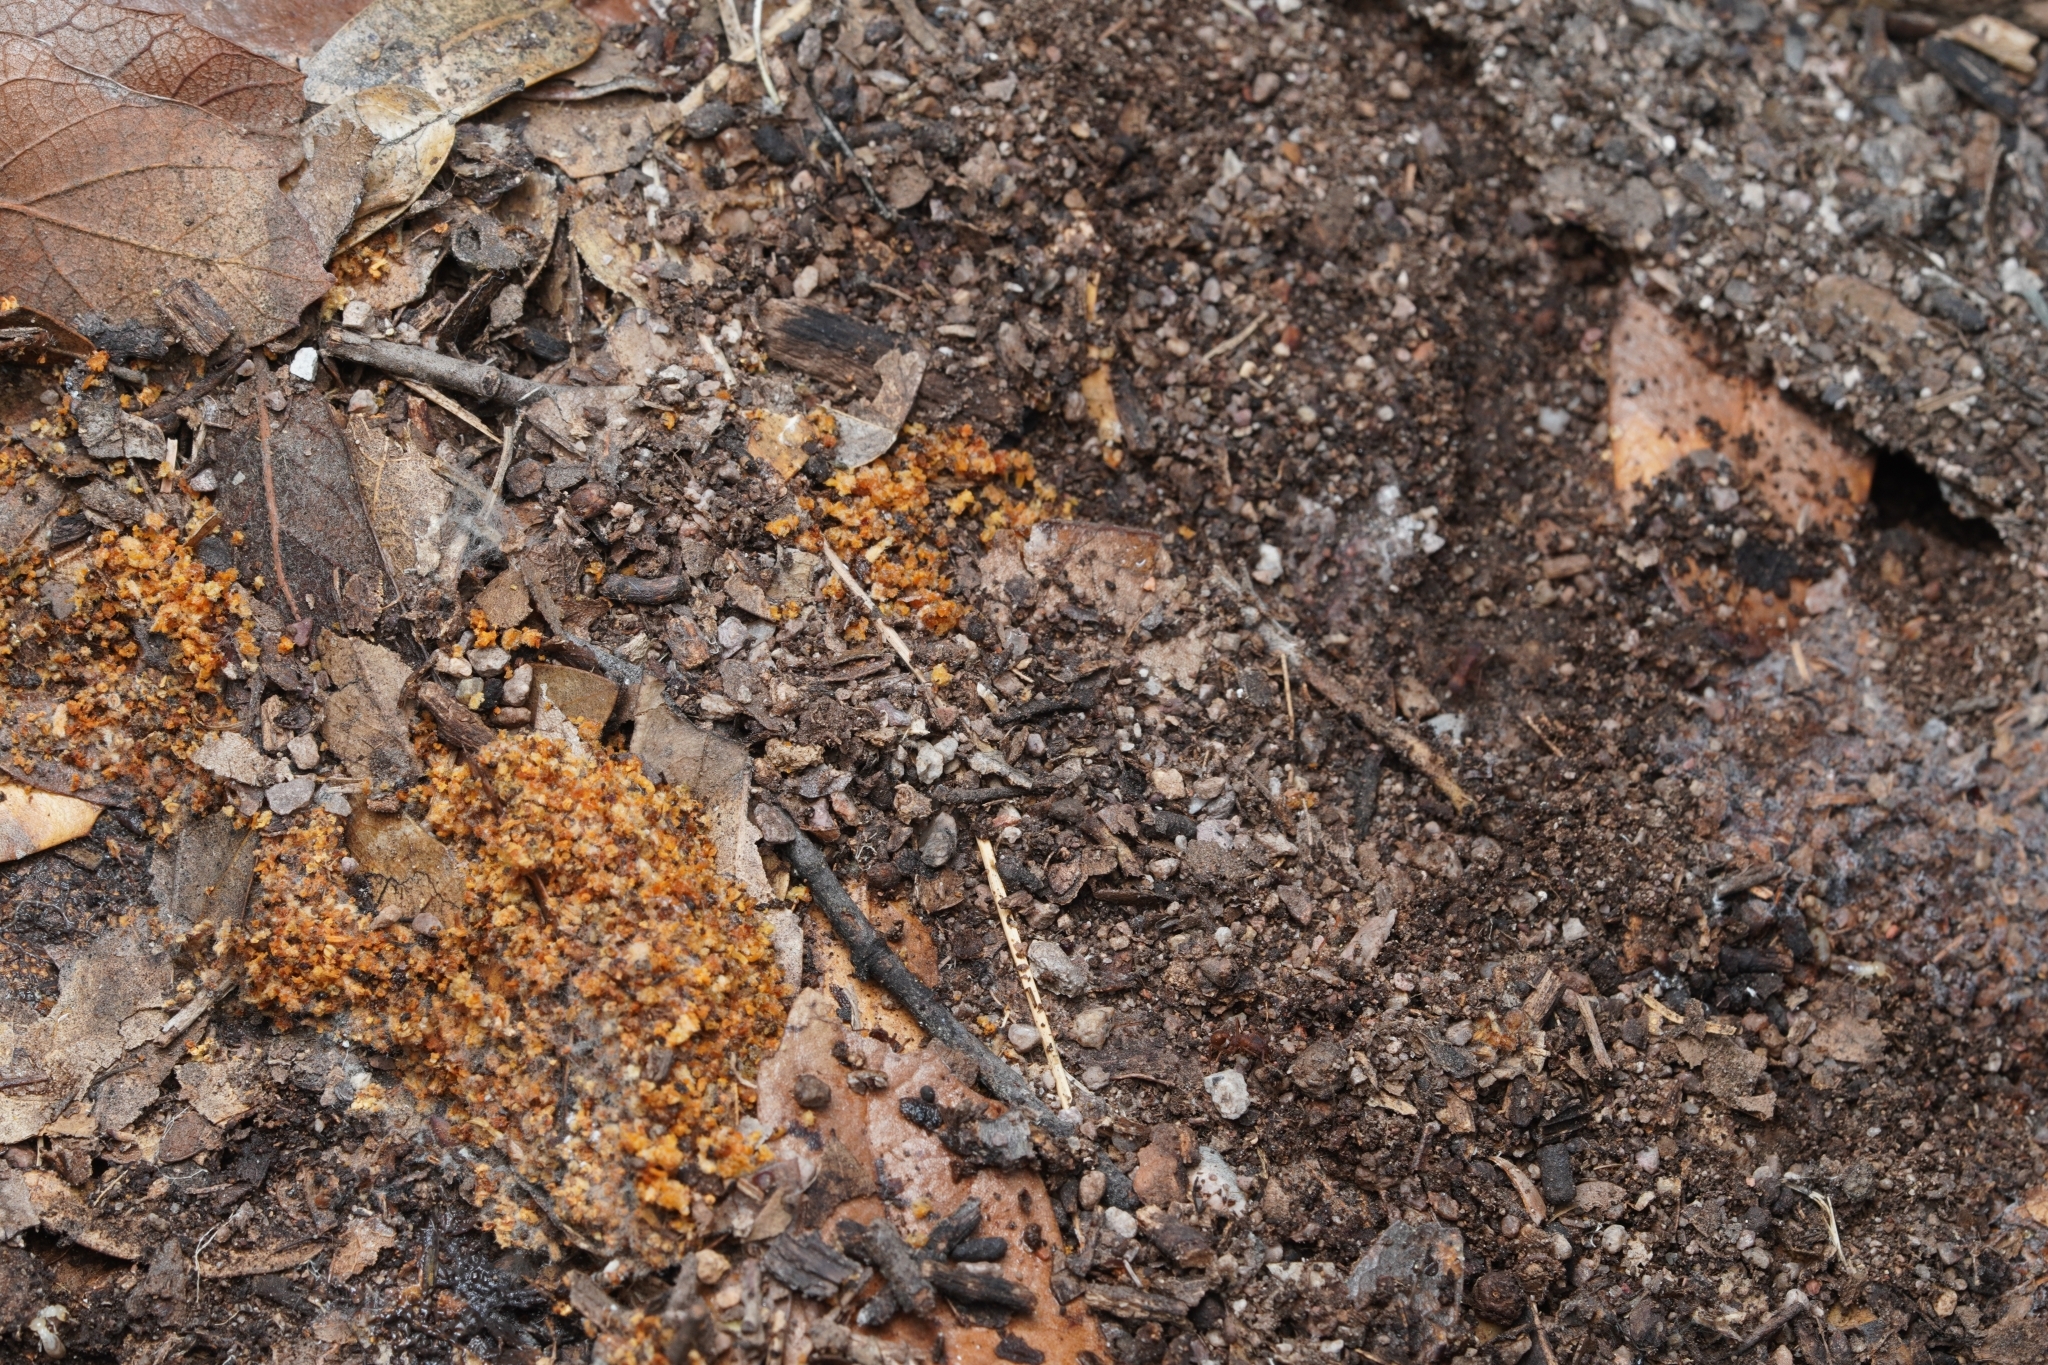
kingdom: Animalia
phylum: Arthropoda
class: Insecta
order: Hymenoptera
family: Formicidae
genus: Trachymyrmex
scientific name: Trachymyrmex arizonensis
